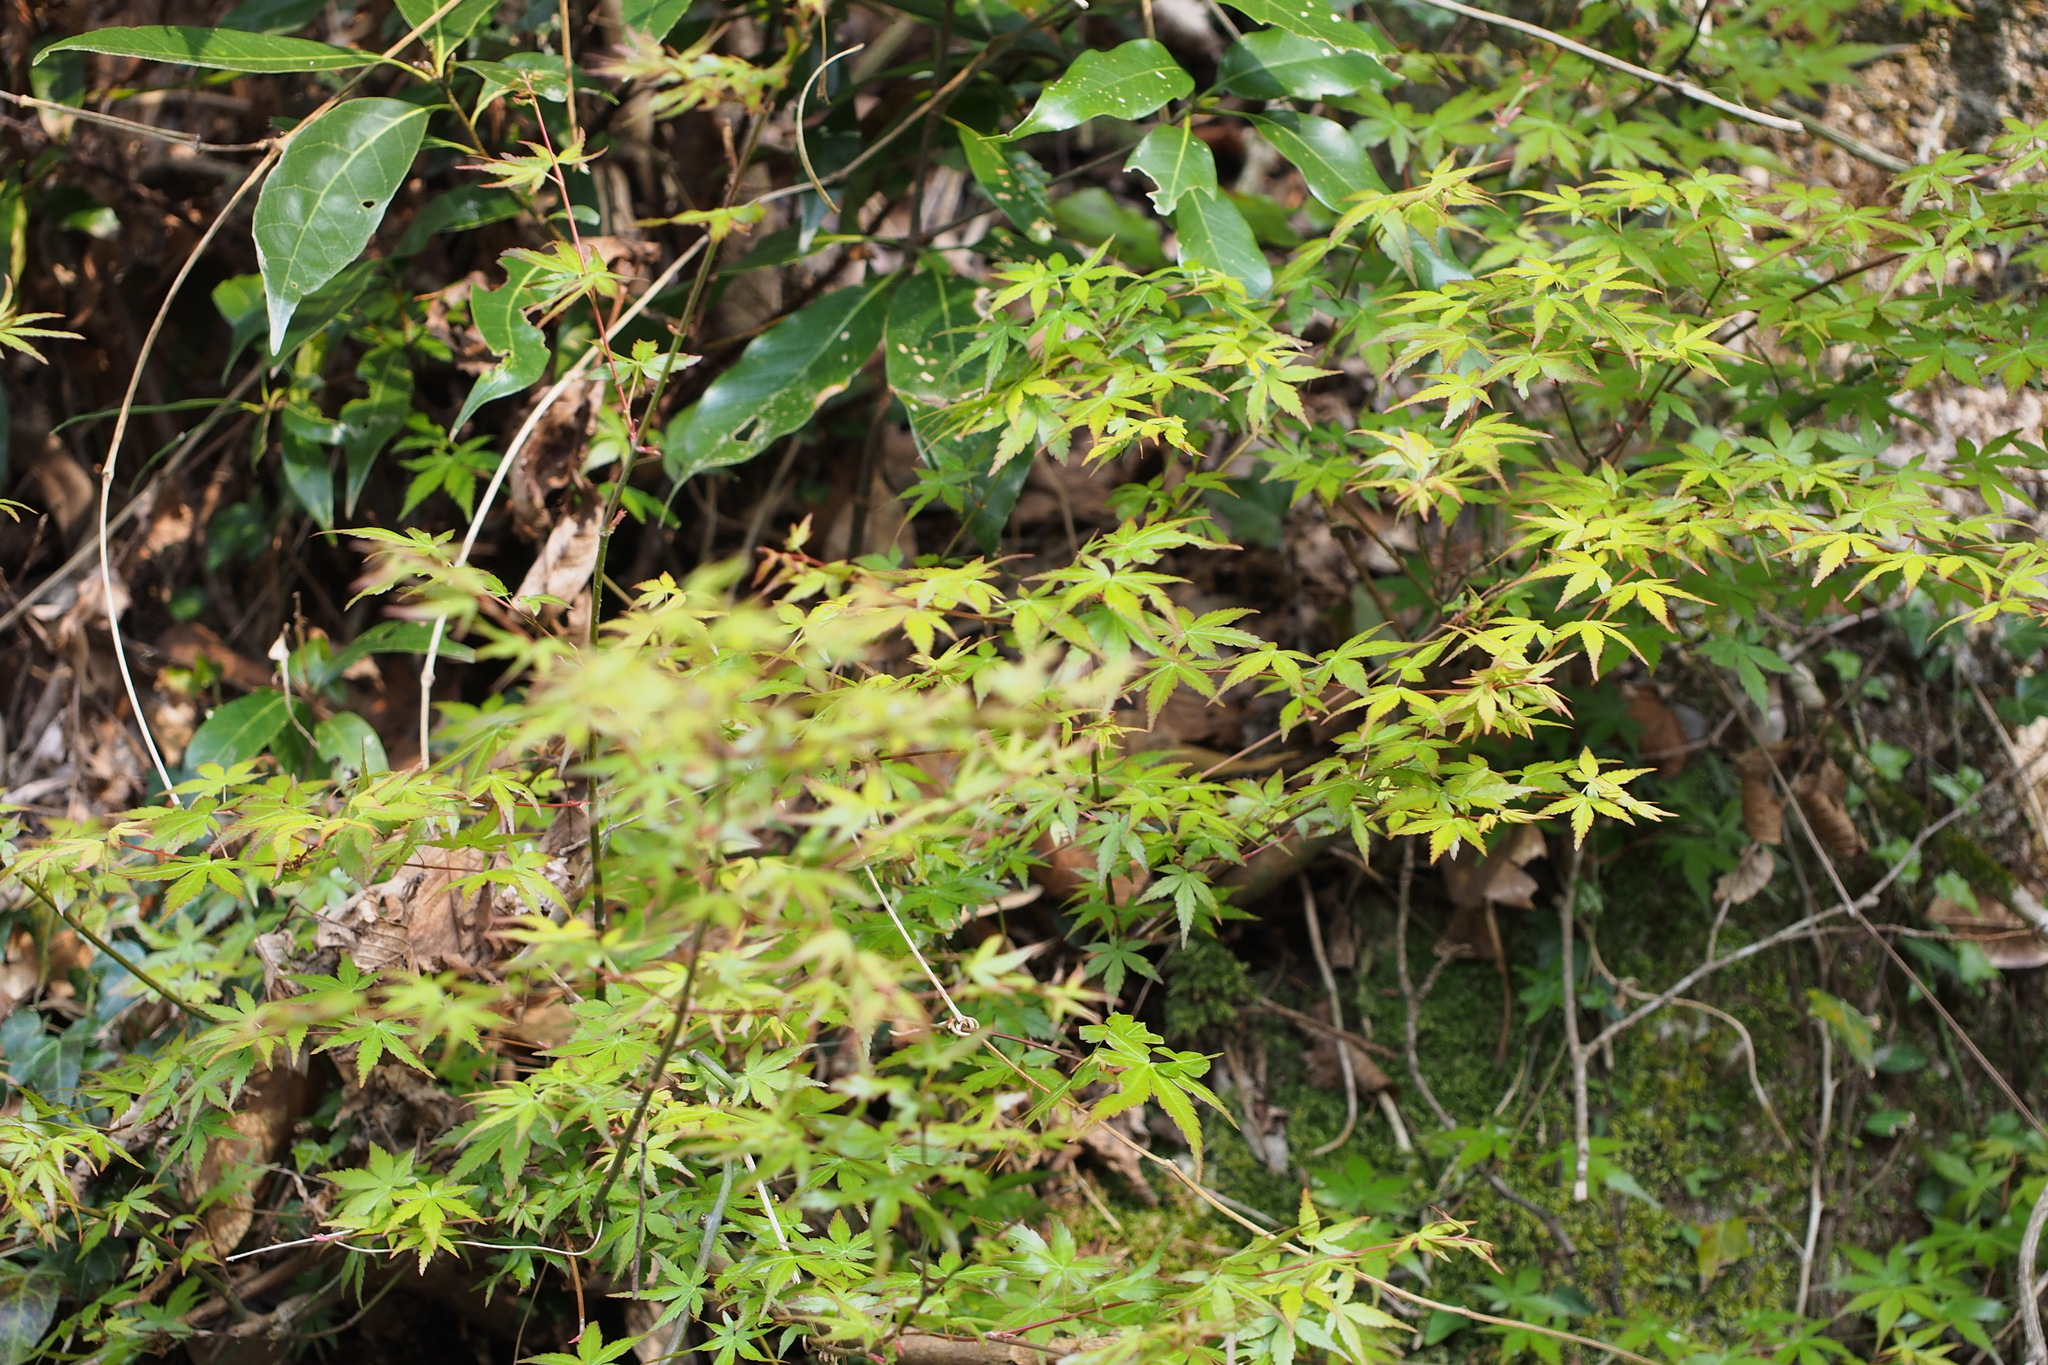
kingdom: Plantae
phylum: Tracheophyta
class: Magnoliopsida
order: Sapindales
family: Sapindaceae
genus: Acer
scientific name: Acer palmatum
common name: Japanese maple
